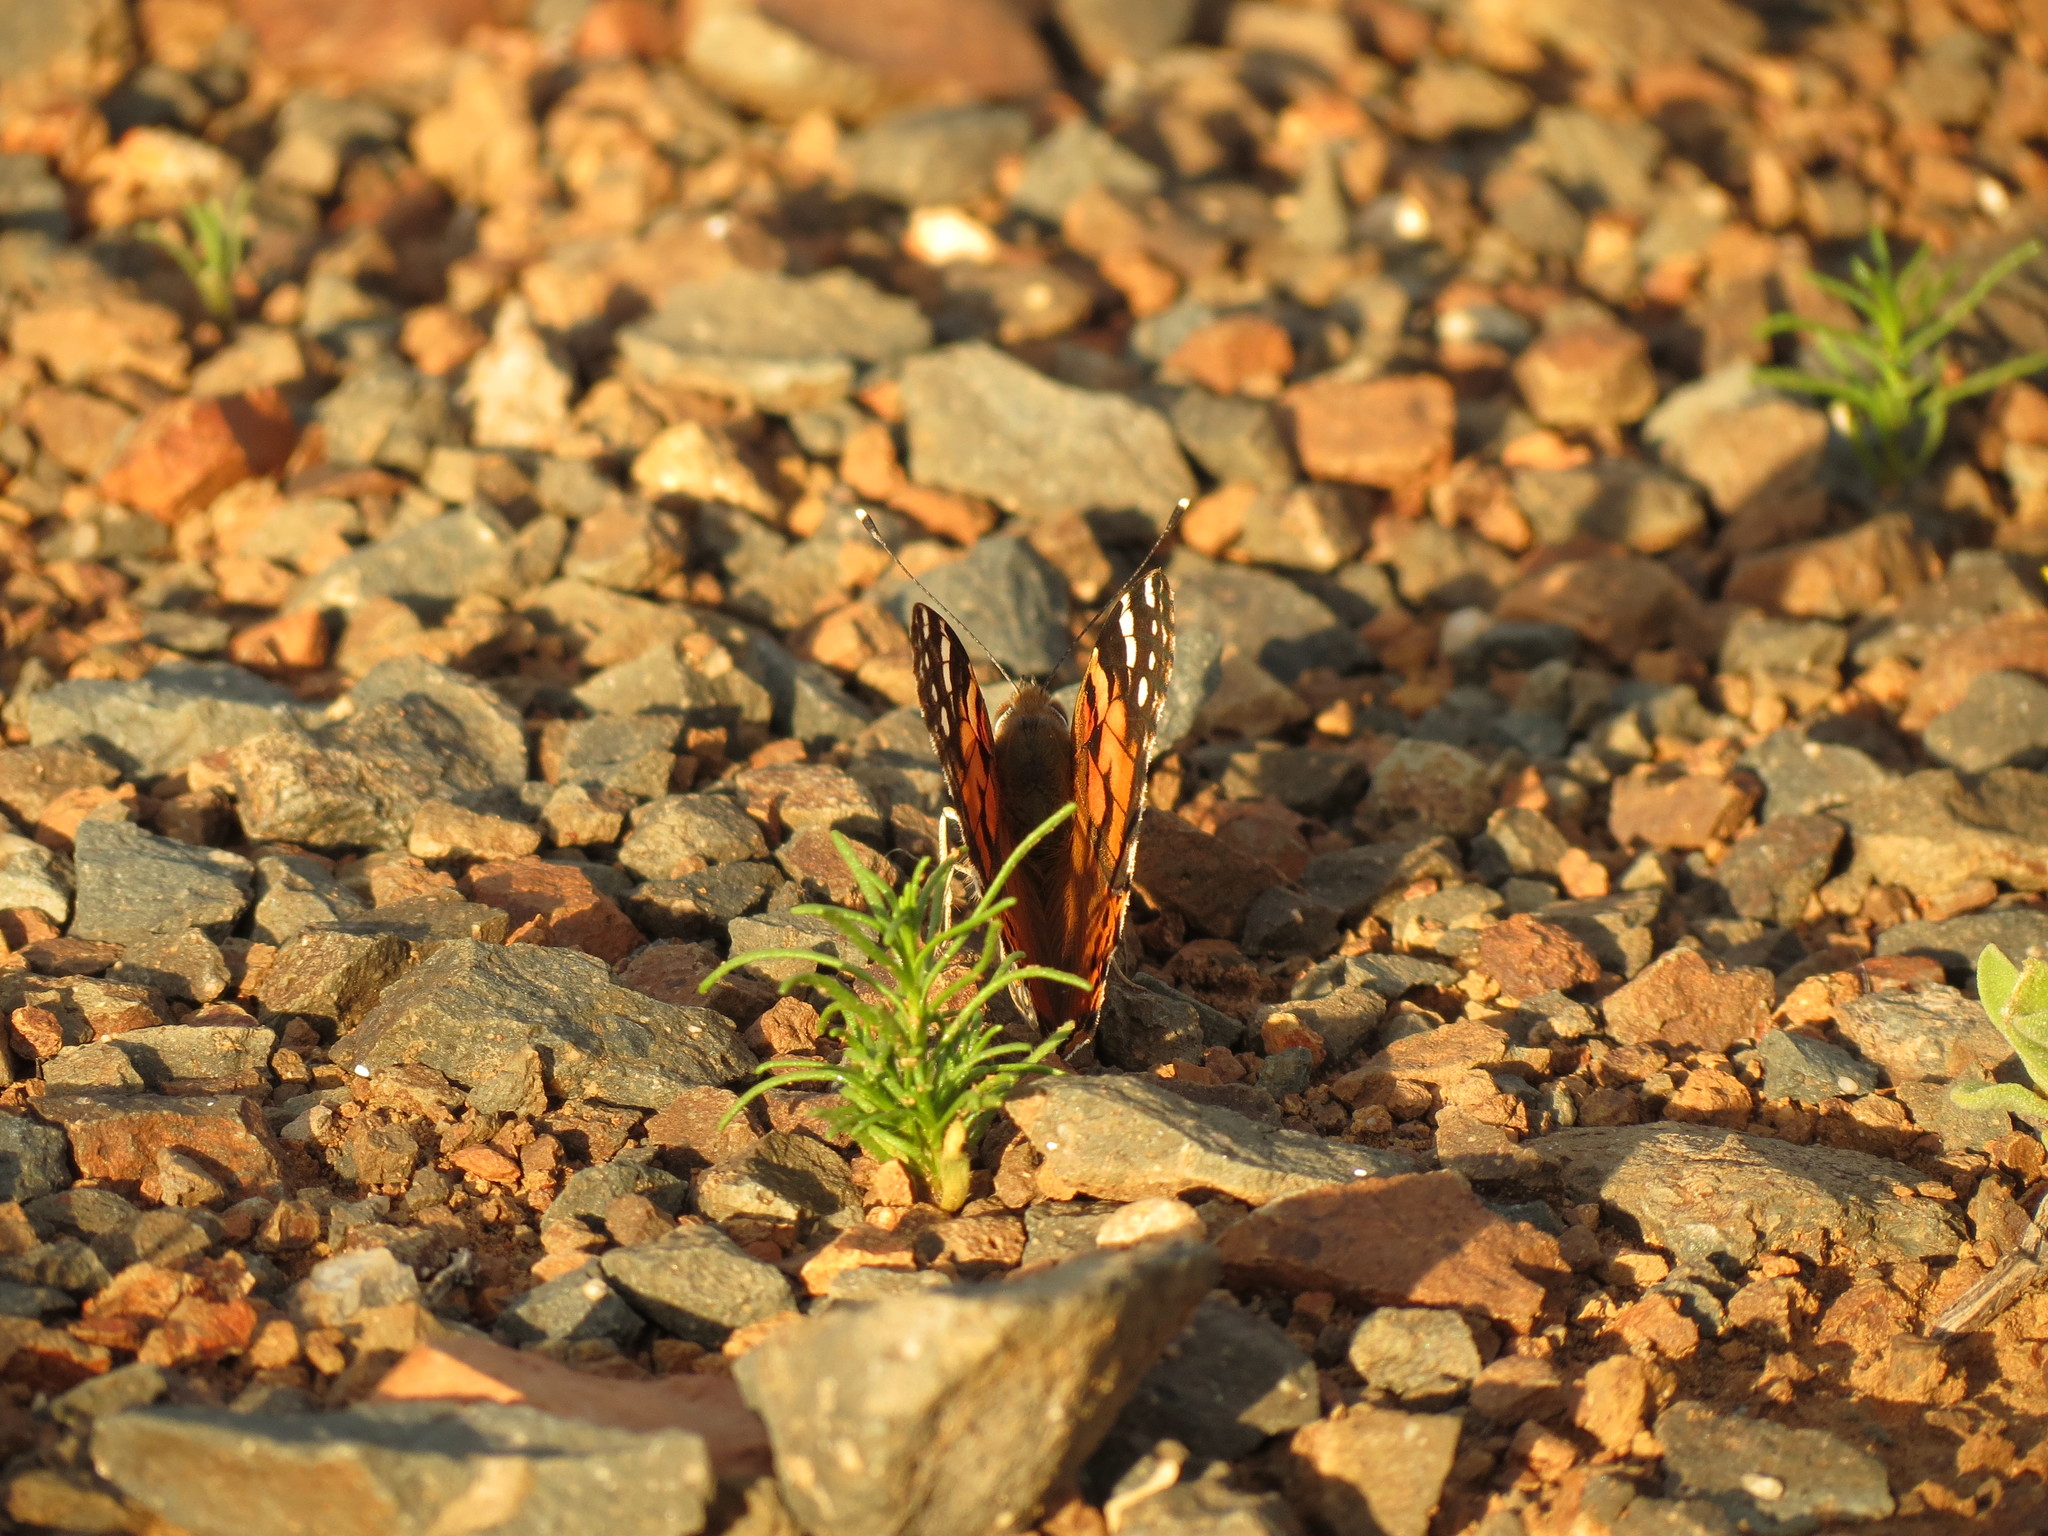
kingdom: Animalia
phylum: Arthropoda
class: Insecta
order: Lepidoptera
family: Nymphalidae
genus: Vanessa
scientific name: Vanessa cardui
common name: Painted lady
